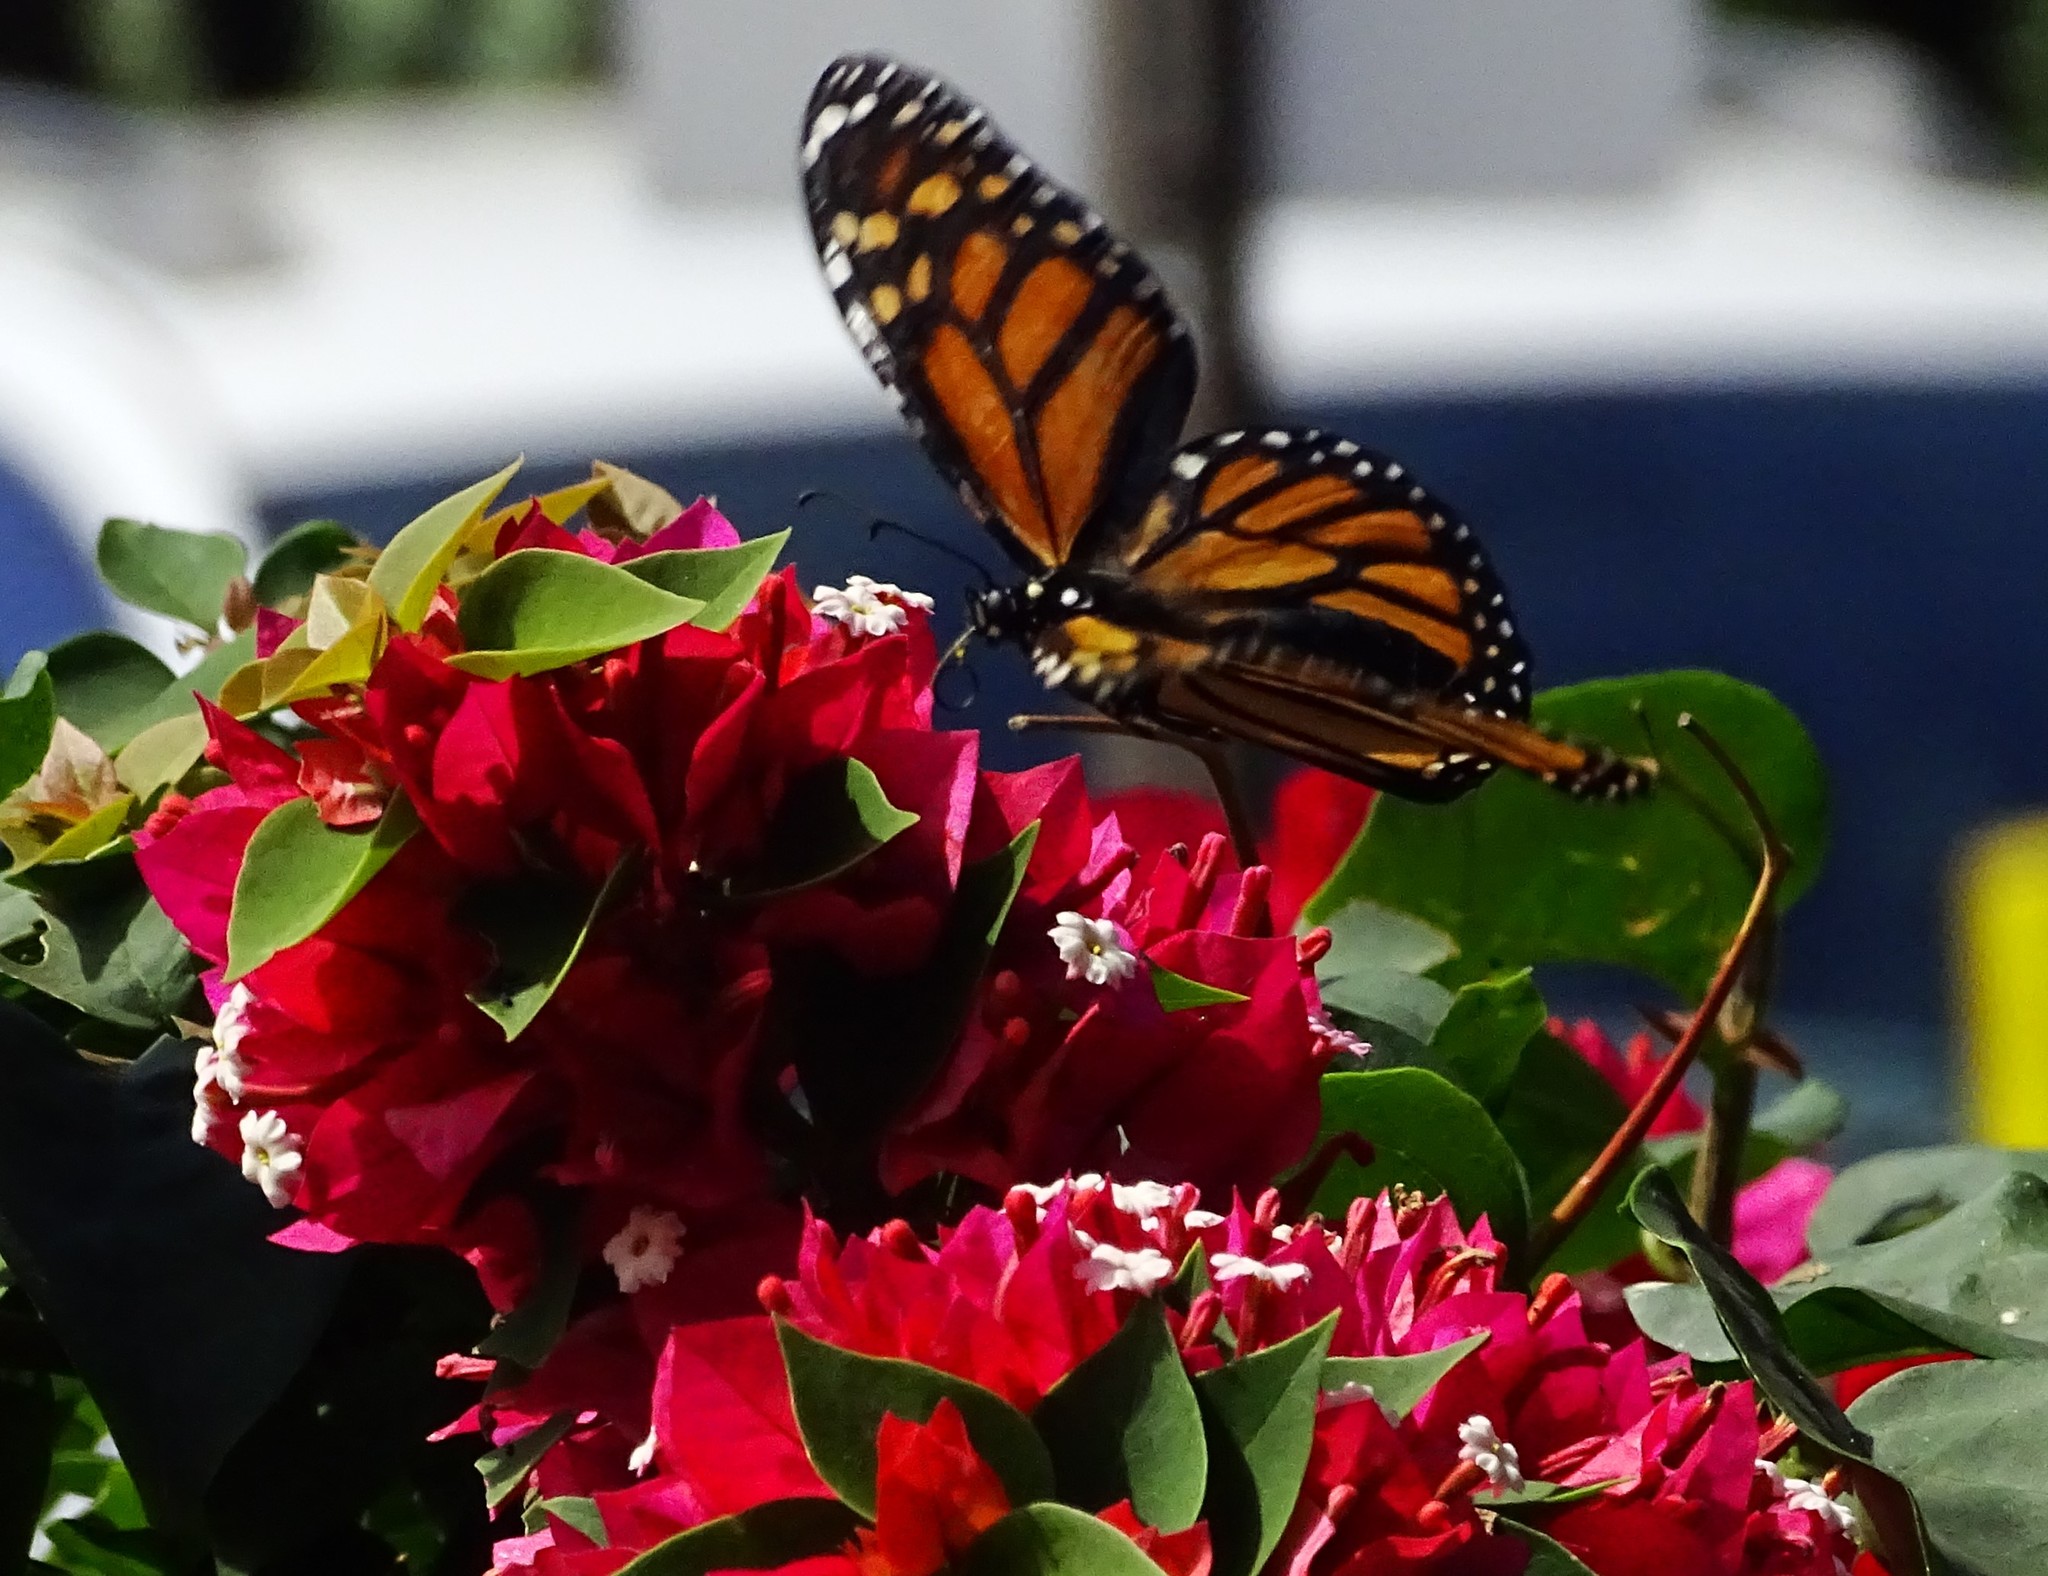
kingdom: Animalia
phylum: Arthropoda
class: Insecta
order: Lepidoptera
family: Nymphalidae
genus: Danaus
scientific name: Danaus plexippus
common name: Monarch
